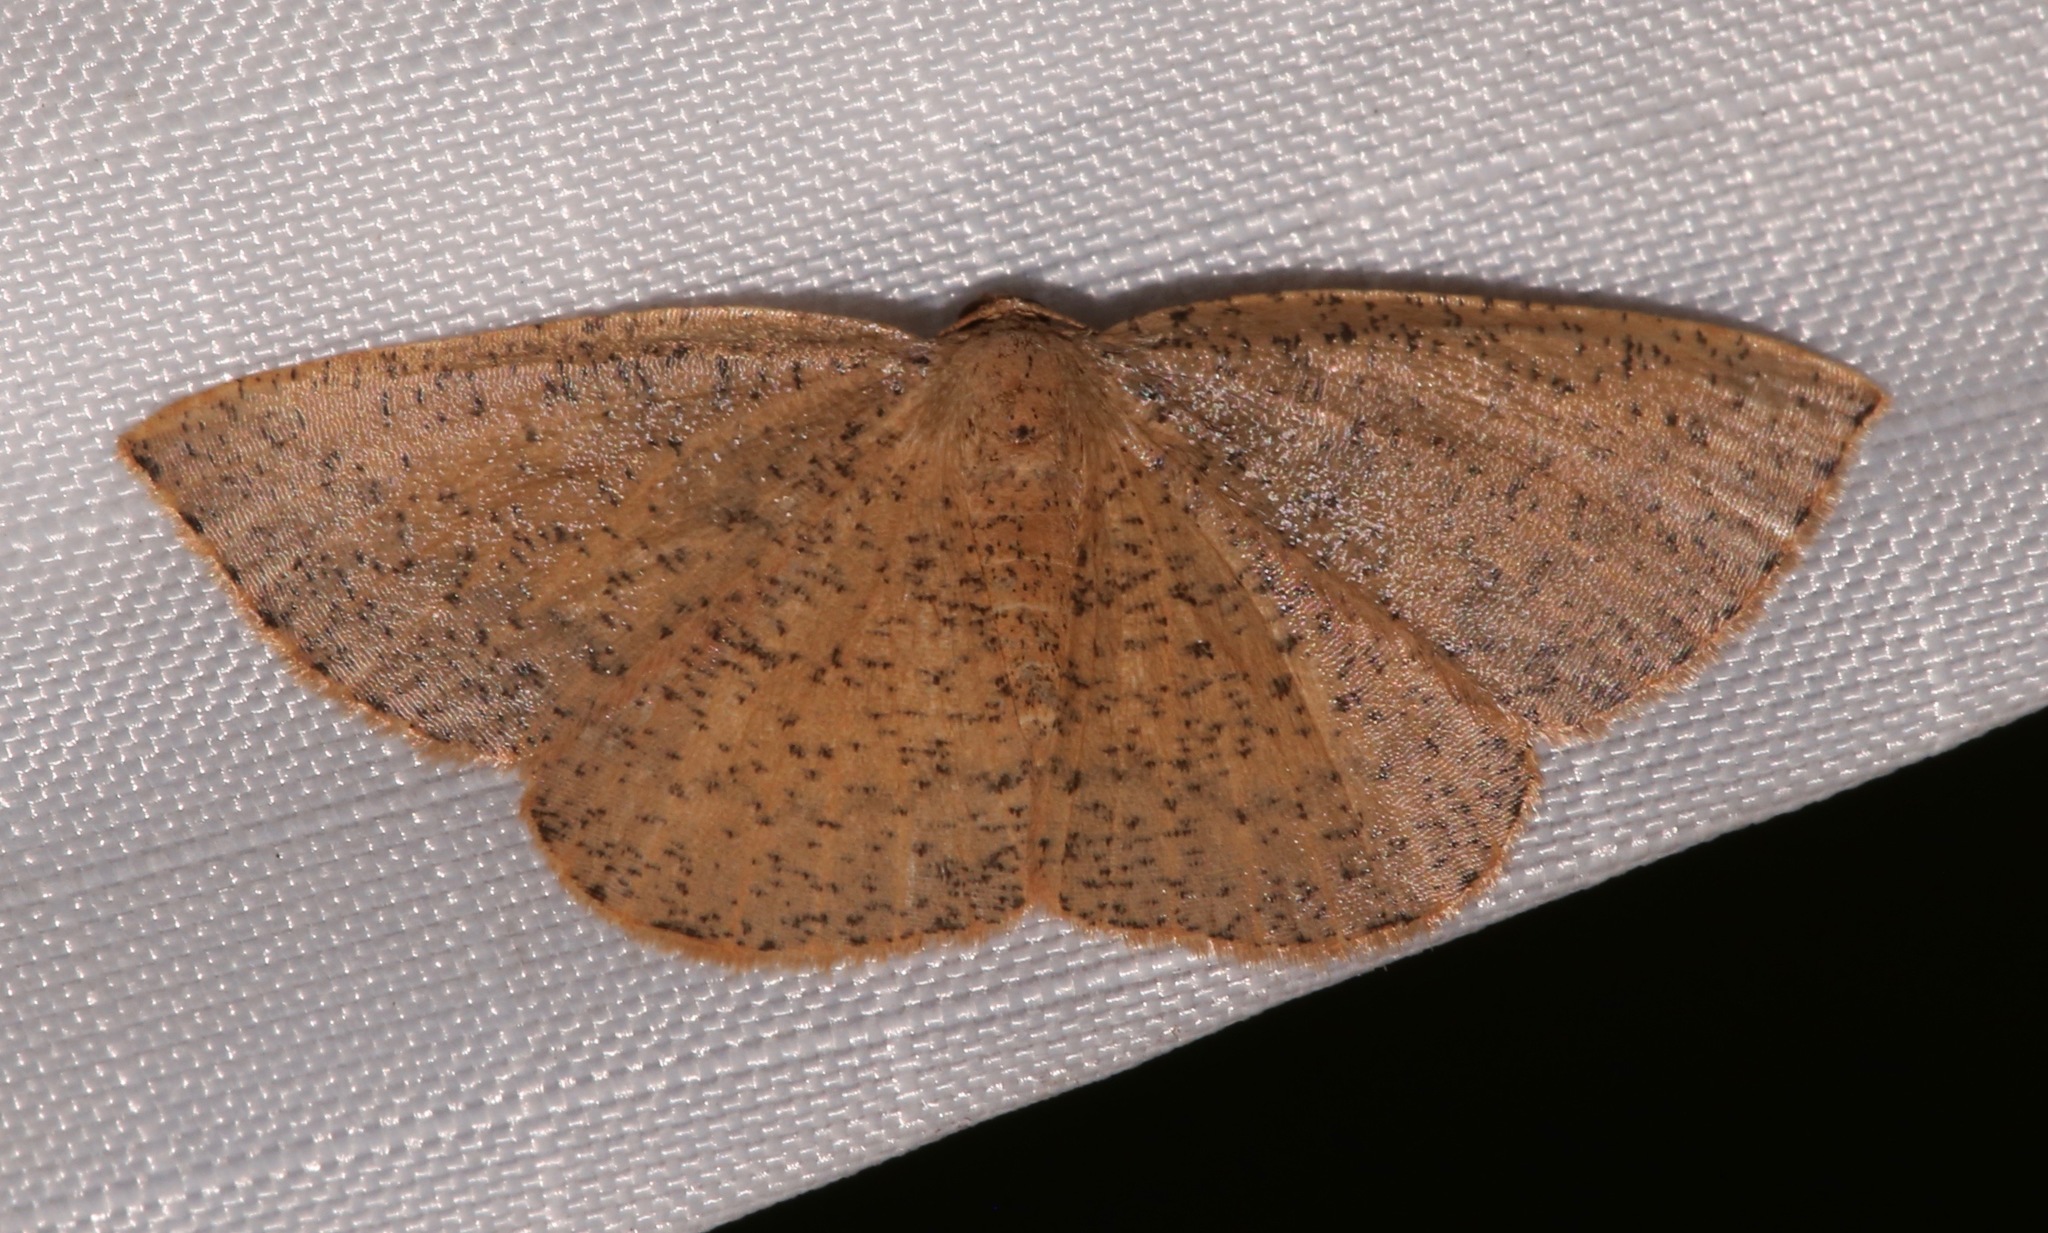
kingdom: Animalia
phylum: Arthropoda
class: Insecta
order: Lepidoptera
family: Geometridae
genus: Episemasia
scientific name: Episemasia solitaria
